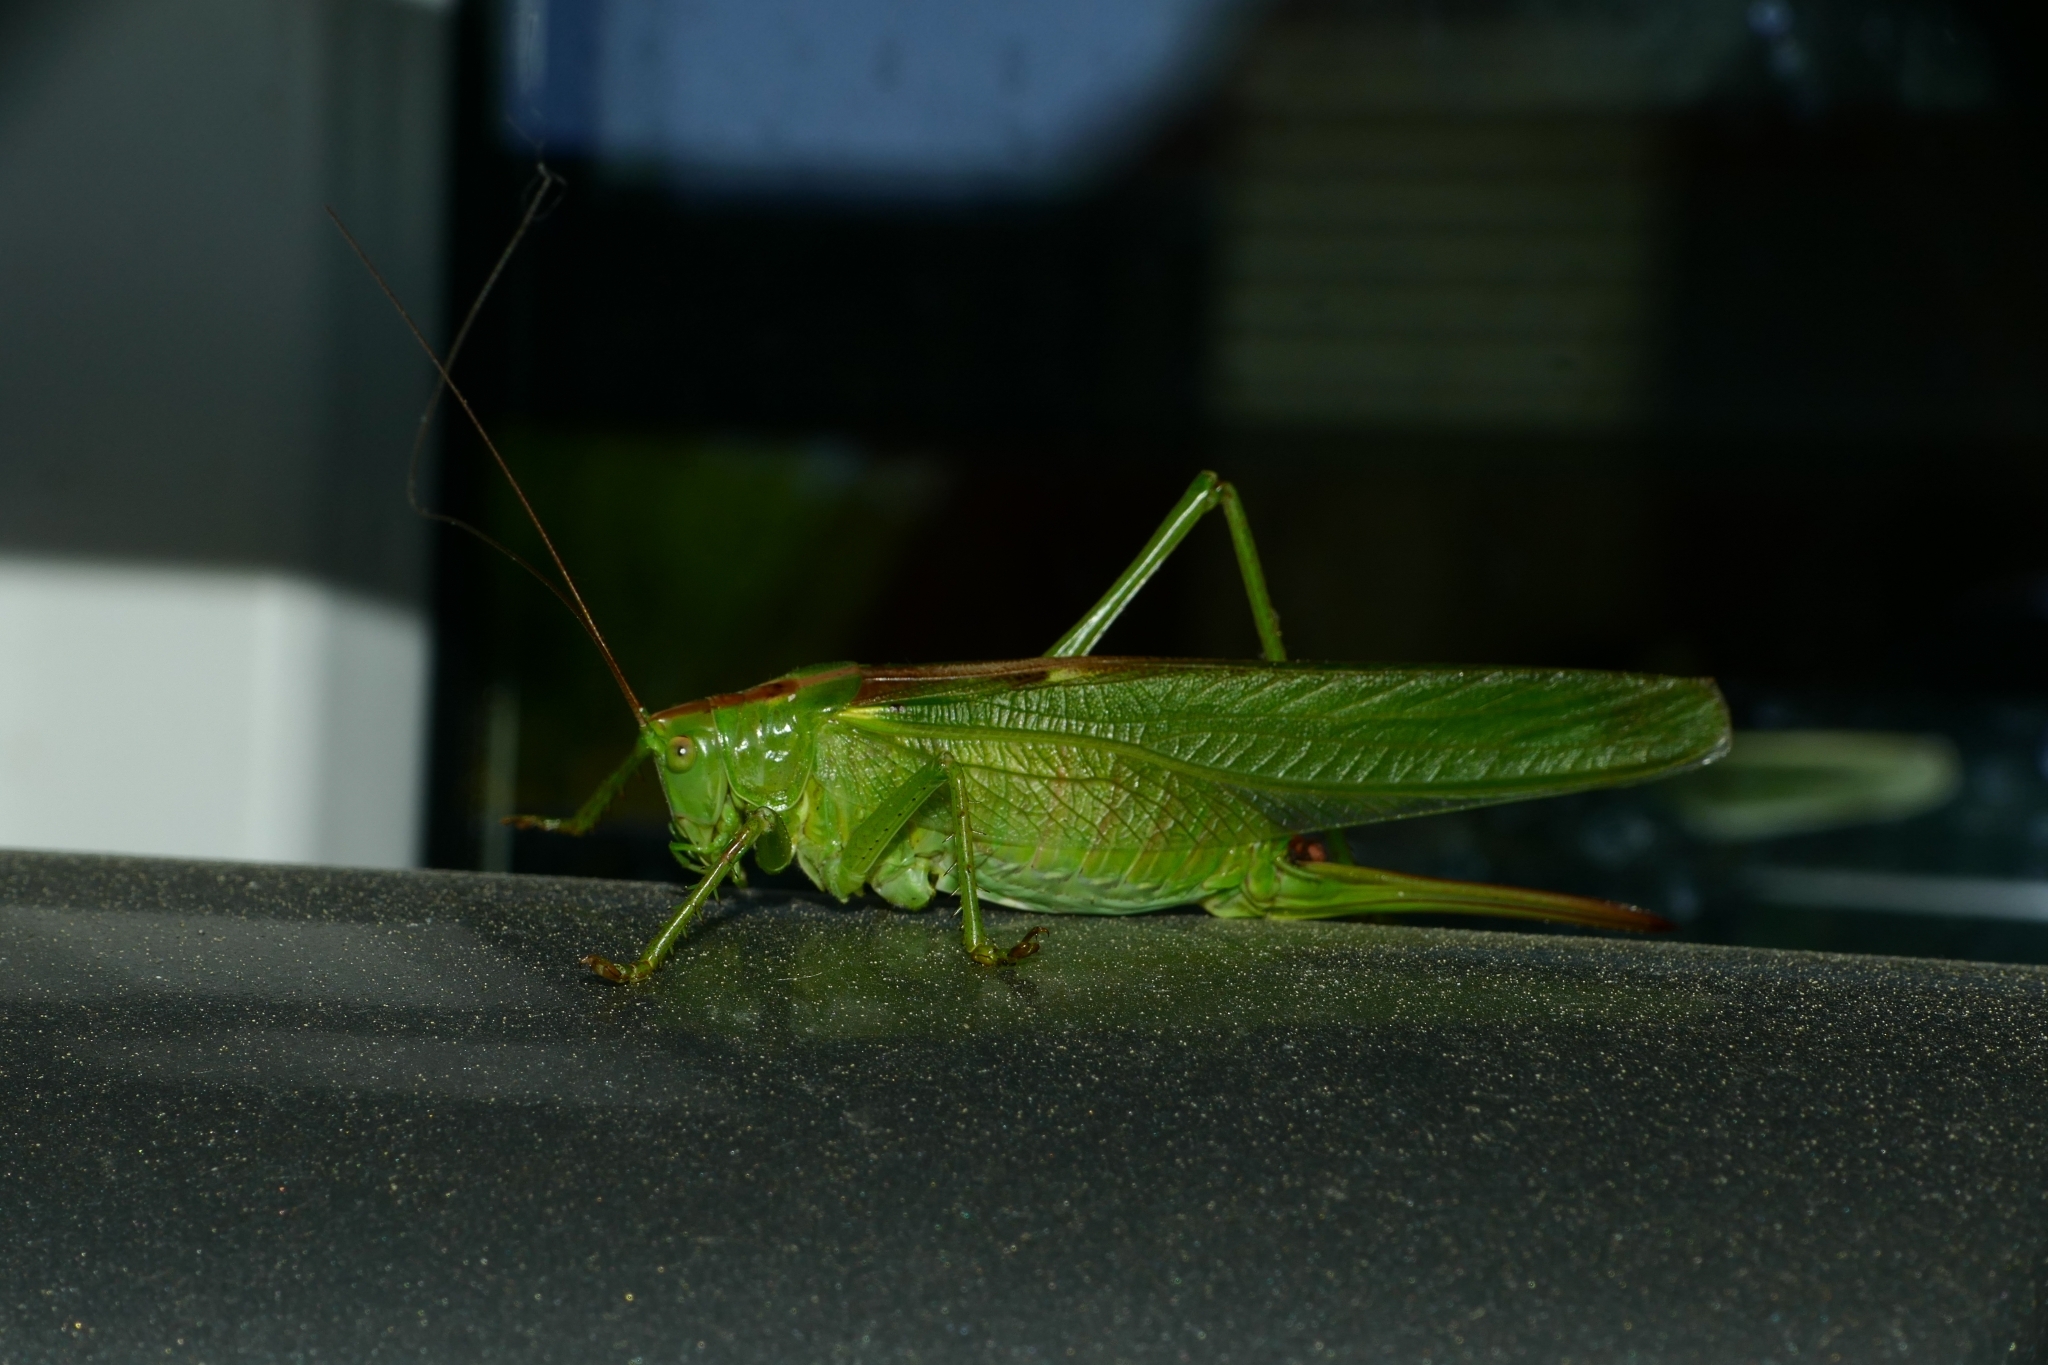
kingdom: Animalia
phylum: Arthropoda
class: Insecta
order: Orthoptera
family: Tettigoniidae
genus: Tettigonia
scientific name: Tettigonia viridissima
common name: Great green bush-cricket
